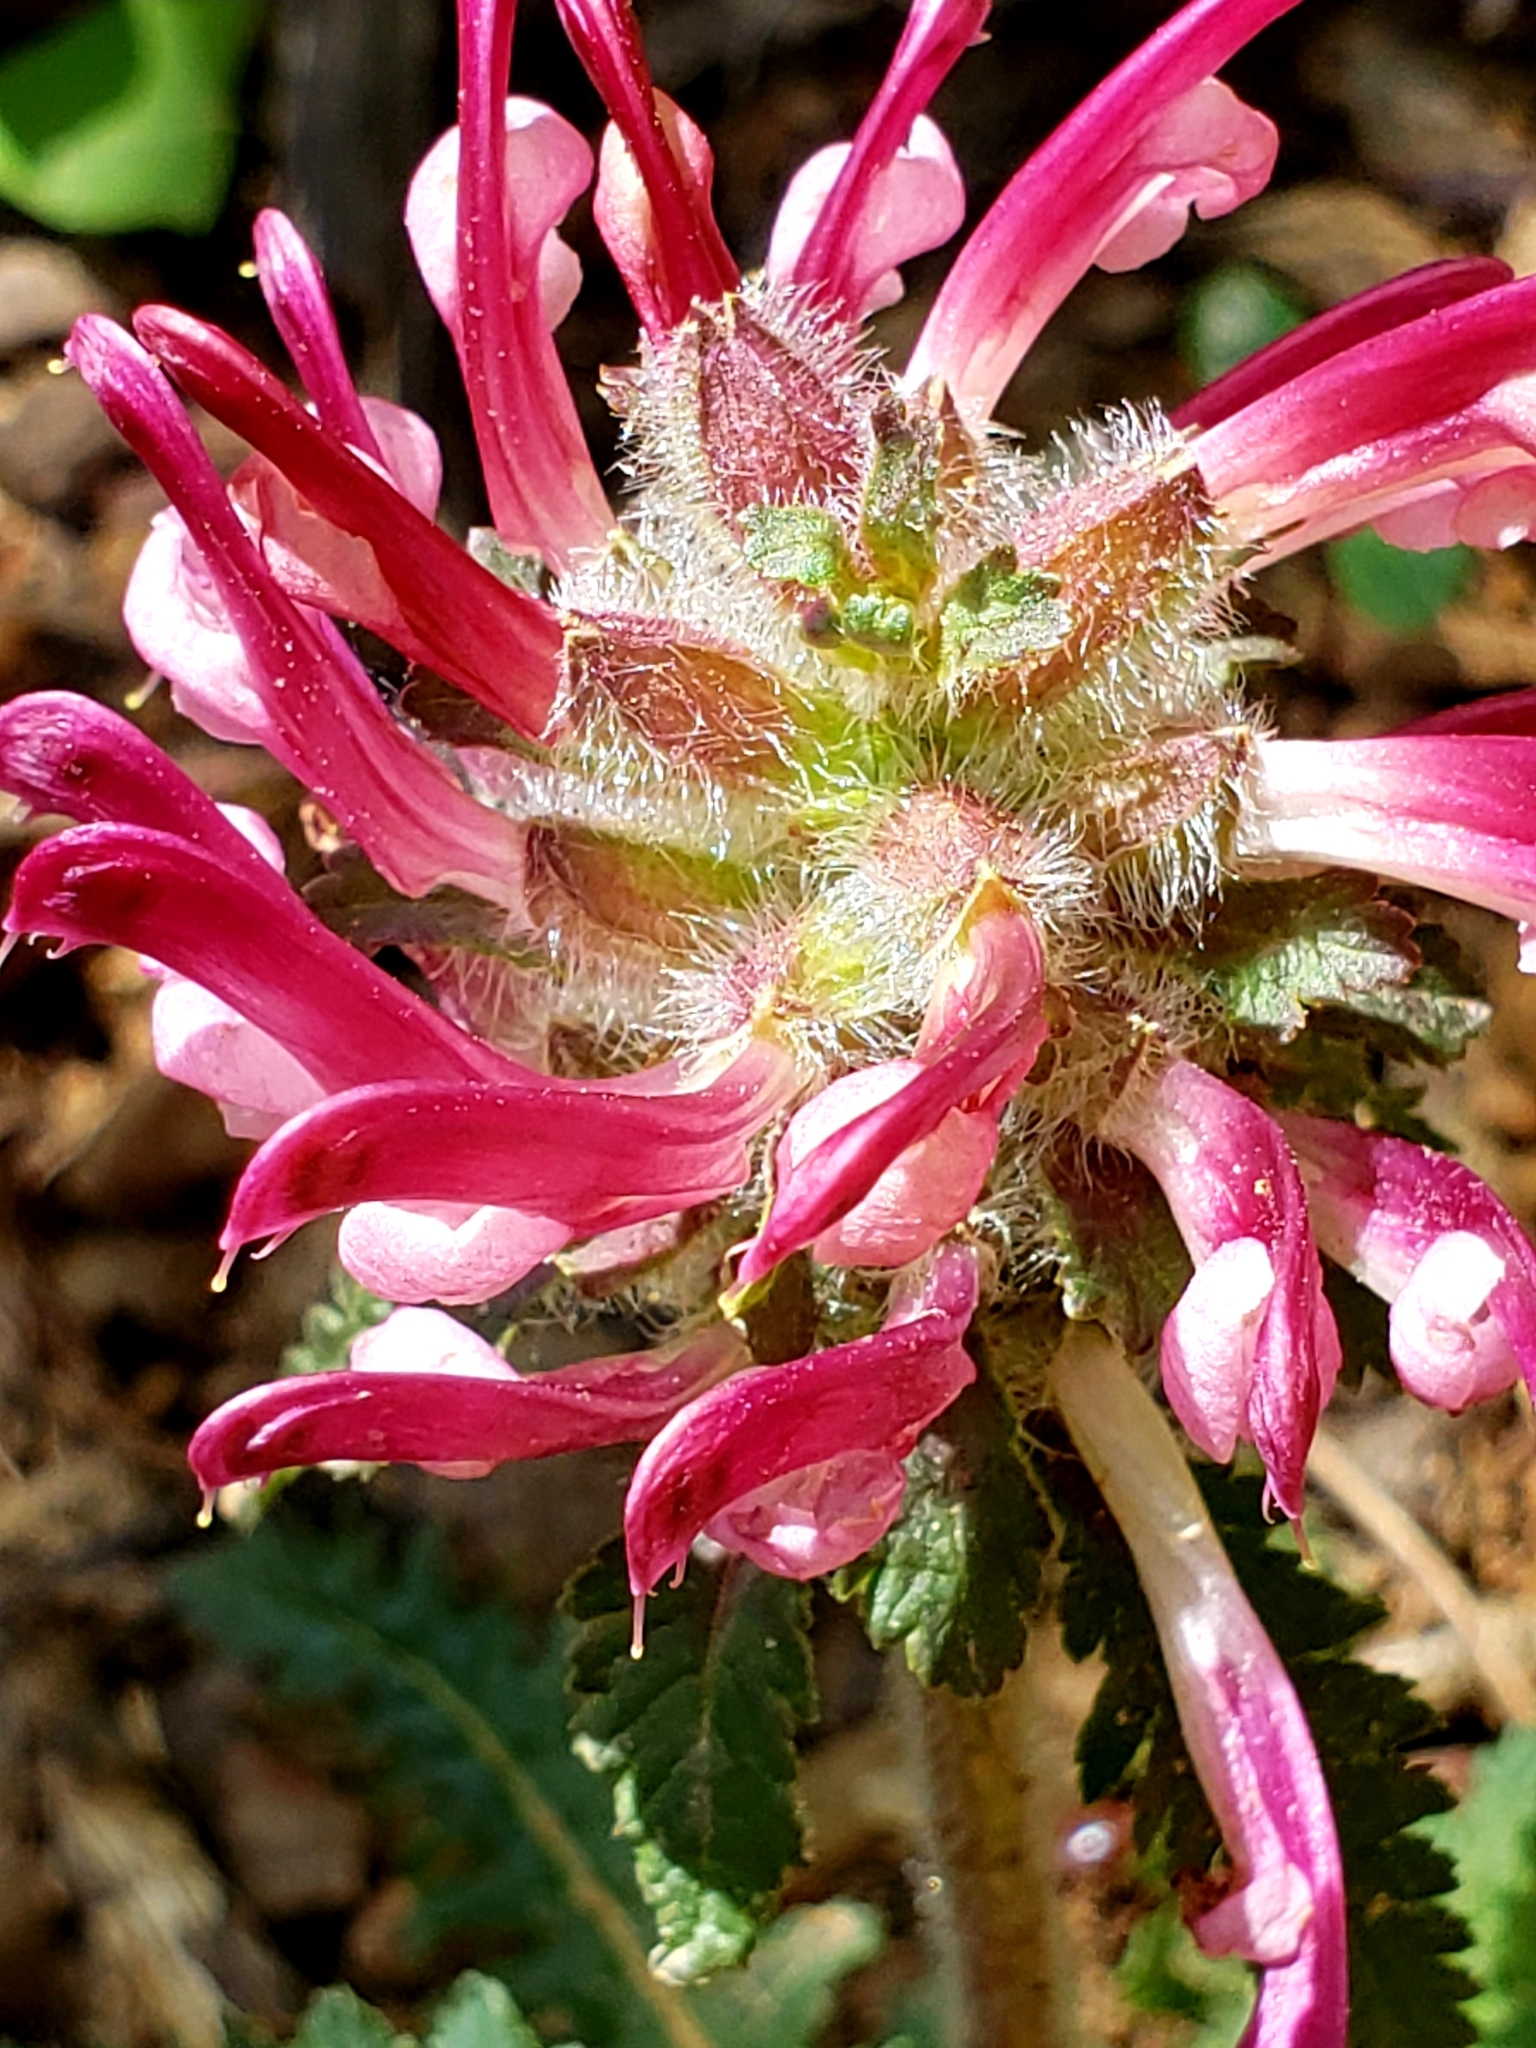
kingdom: Plantae
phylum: Tracheophyta
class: Magnoliopsida
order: Lamiales
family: Orobanchaceae
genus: Pedicularis
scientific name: Pedicularis canadensis
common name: Early lousewort
